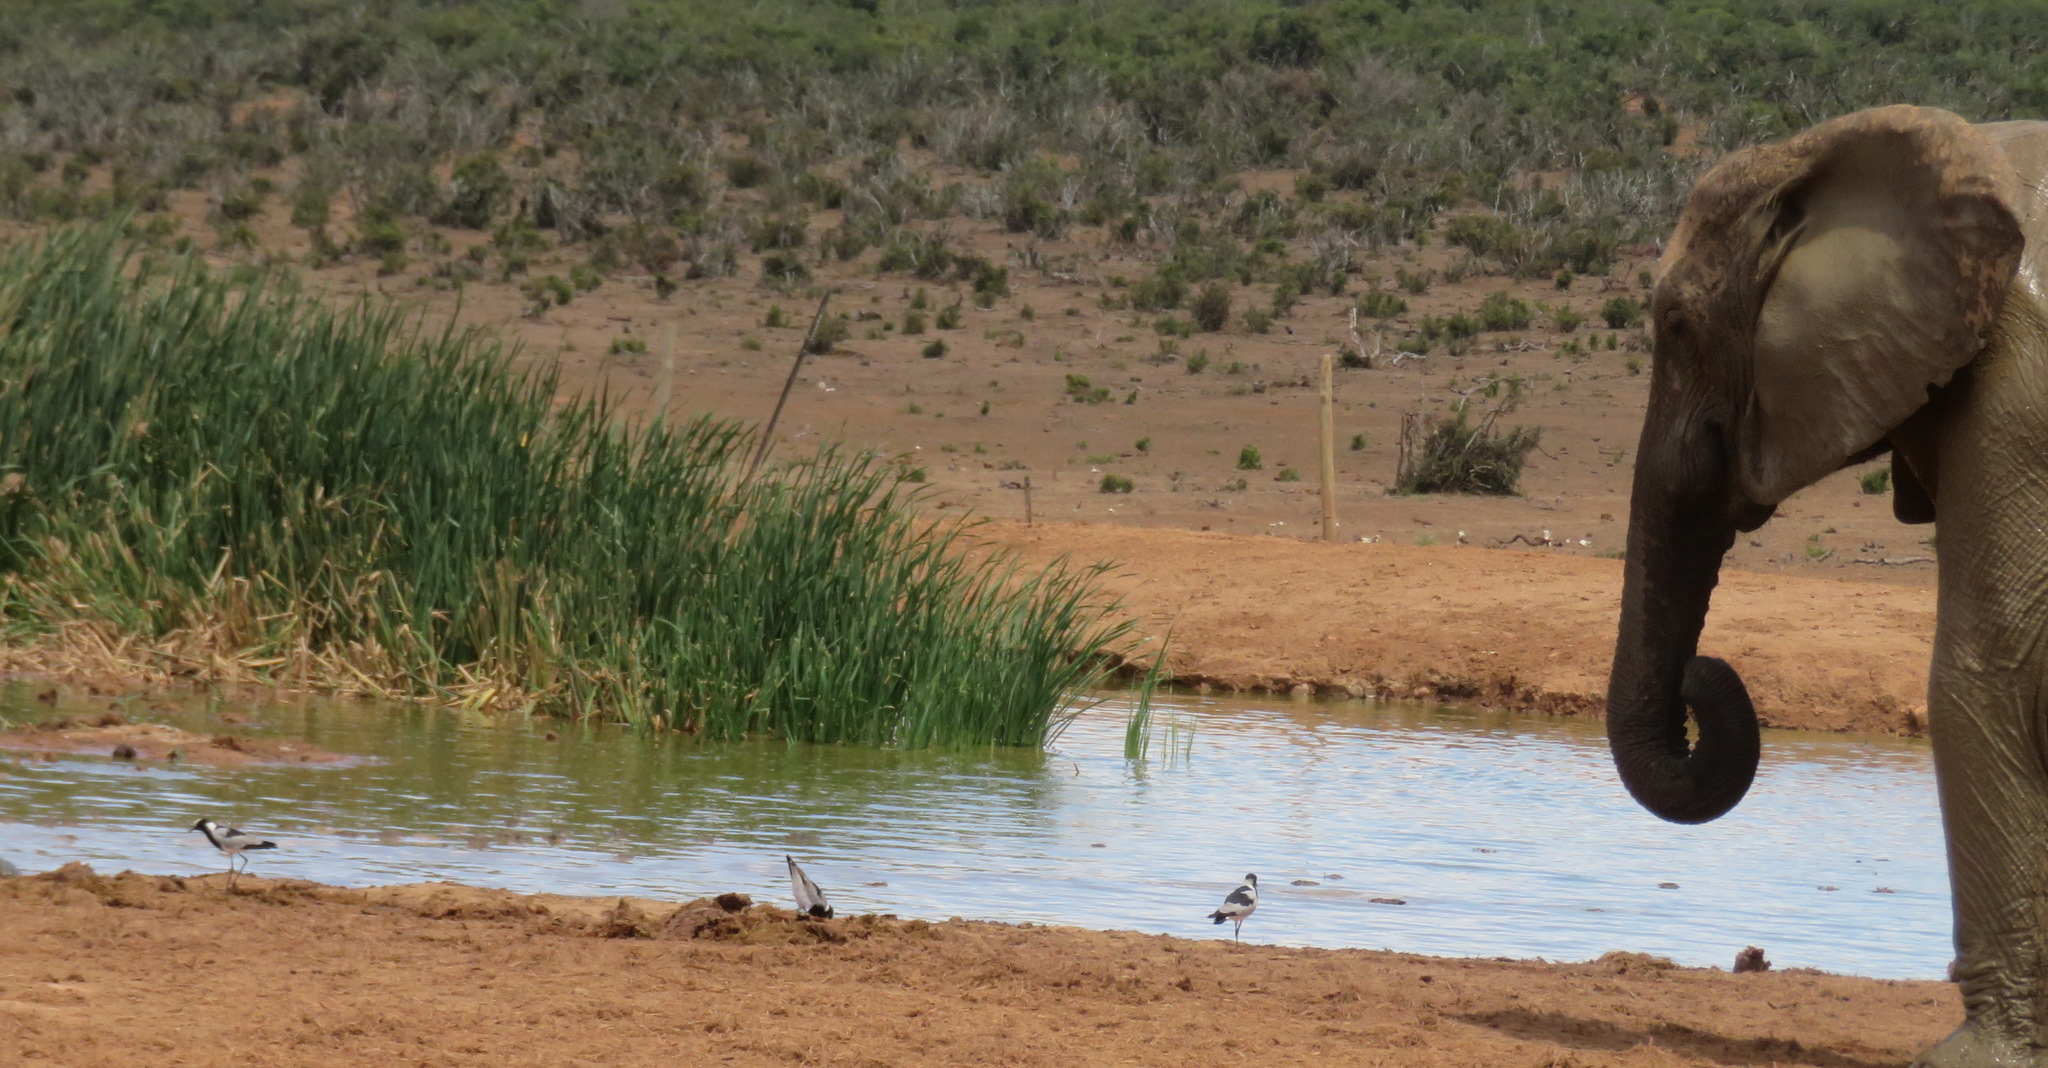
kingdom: Animalia
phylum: Chordata
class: Aves
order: Charadriiformes
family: Charadriidae
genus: Vanellus
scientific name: Vanellus armatus
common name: Blacksmith lapwing
